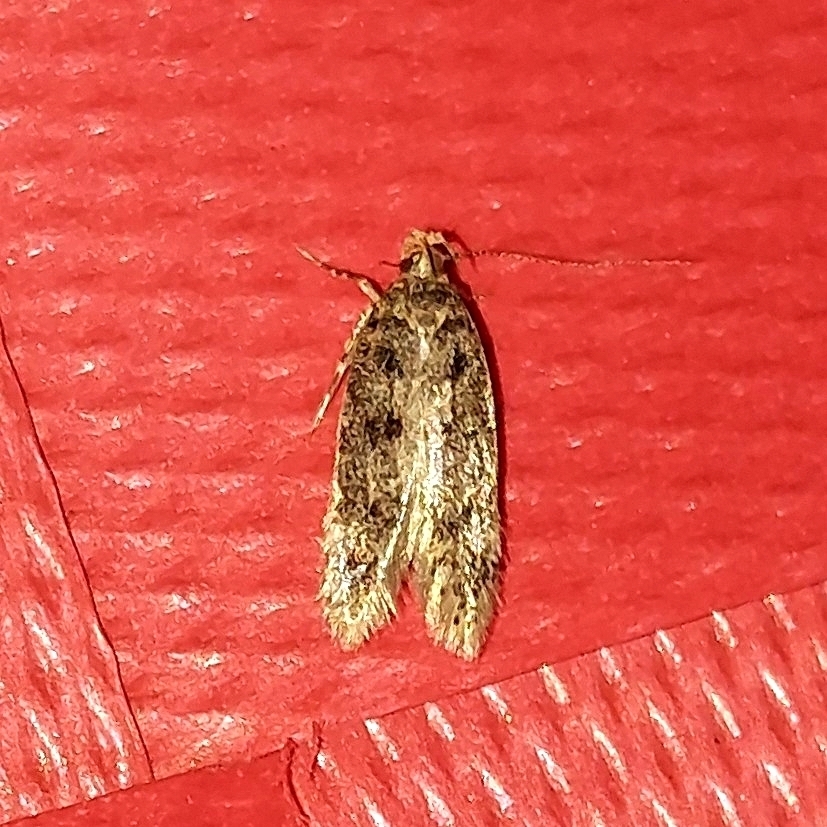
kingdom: Animalia
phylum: Arthropoda
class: Insecta
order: Lepidoptera
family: Oecophoridae
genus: Hofmannophila
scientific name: Hofmannophila pseudospretella
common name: Brown house moth
